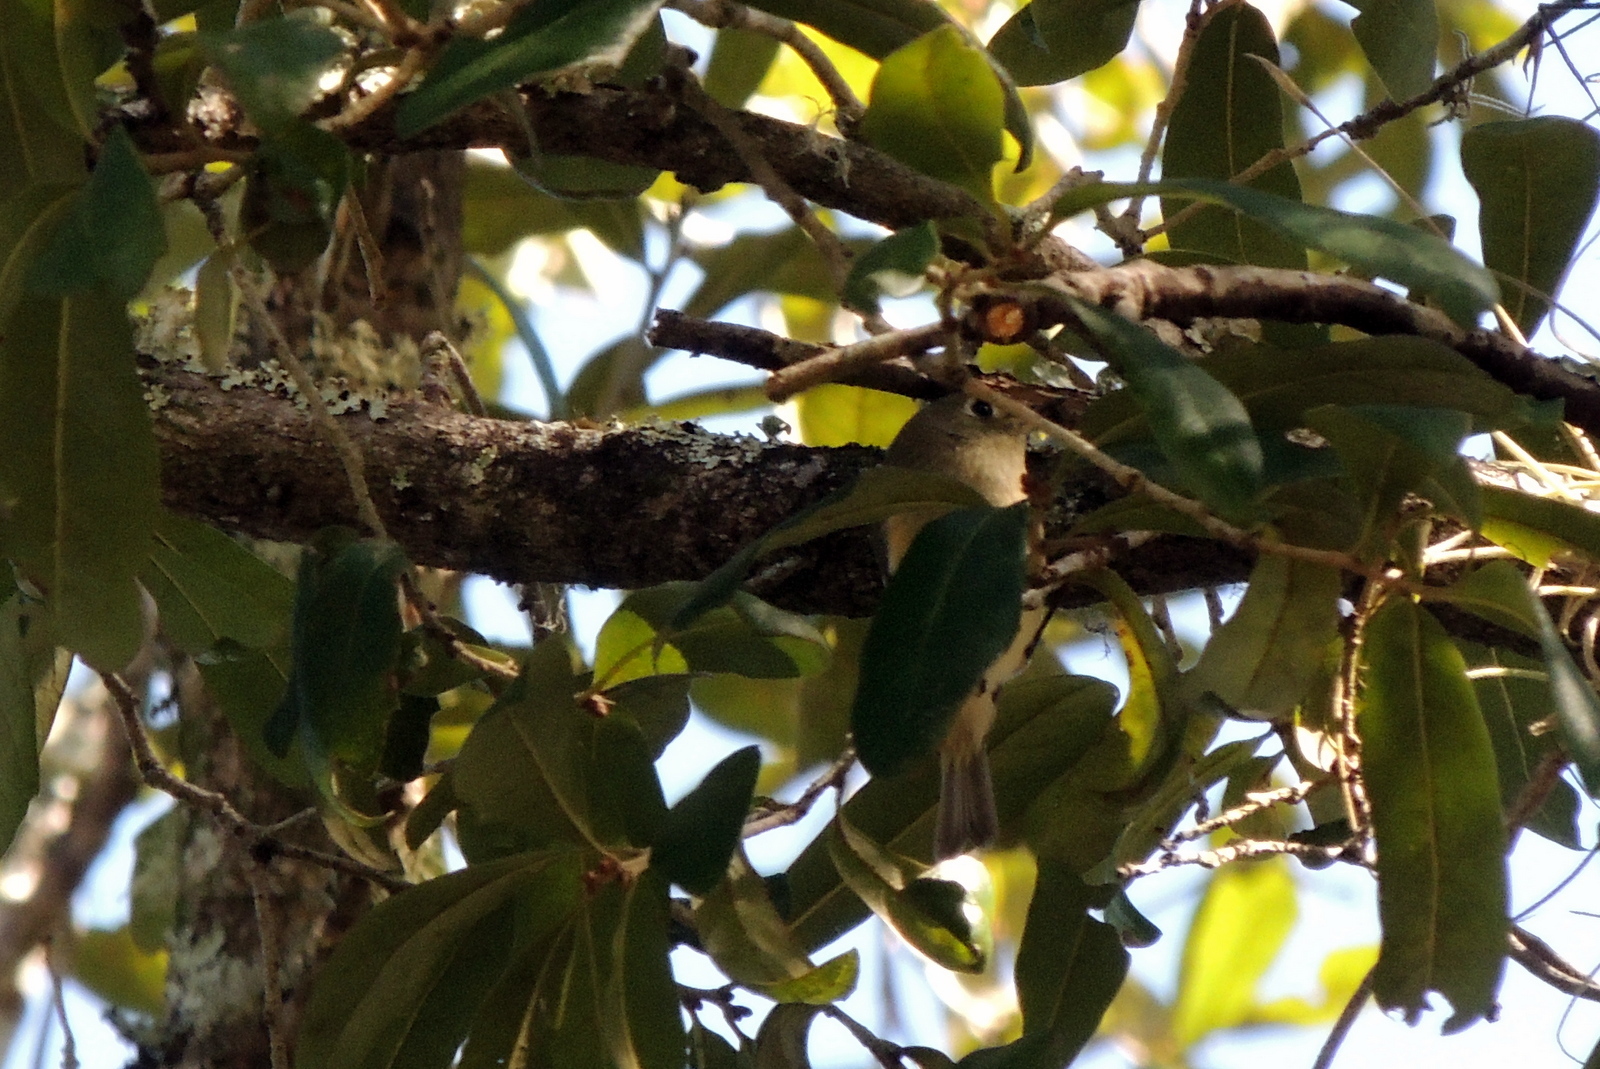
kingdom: Animalia
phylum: Chordata
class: Aves
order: Passeriformes
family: Regulidae
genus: Regulus
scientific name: Regulus calendula
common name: Ruby-crowned kinglet
